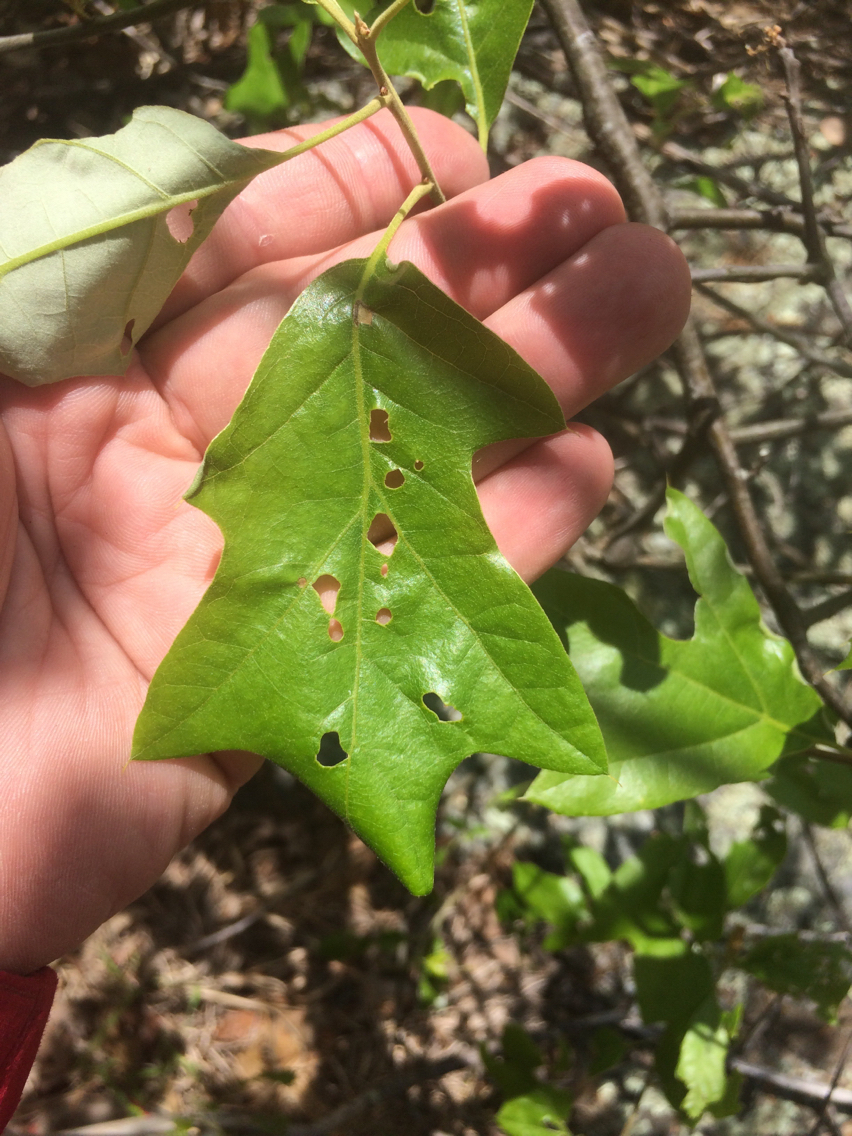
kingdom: Plantae
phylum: Tracheophyta
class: Magnoliopsida
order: Fagales
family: Fagaceae
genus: Quercus
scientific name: Quercus ilicifolia
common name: Bear oak
